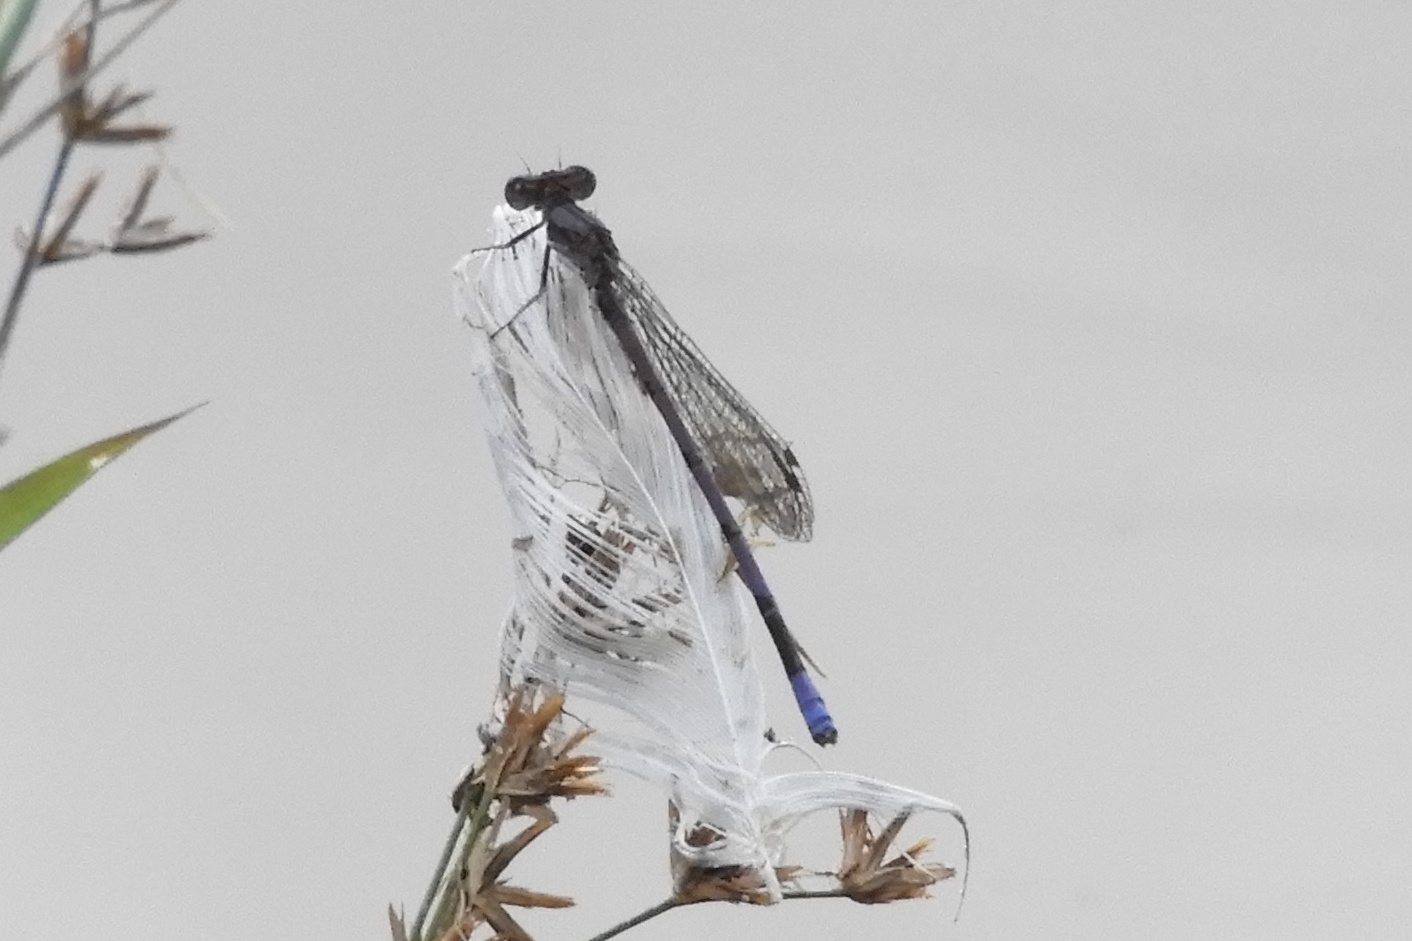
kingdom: Animalia
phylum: Arthropoda
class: Insecta
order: Odonata
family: Coenagrionidae
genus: Argia
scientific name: Argia fumipennis
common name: Variable dancer
